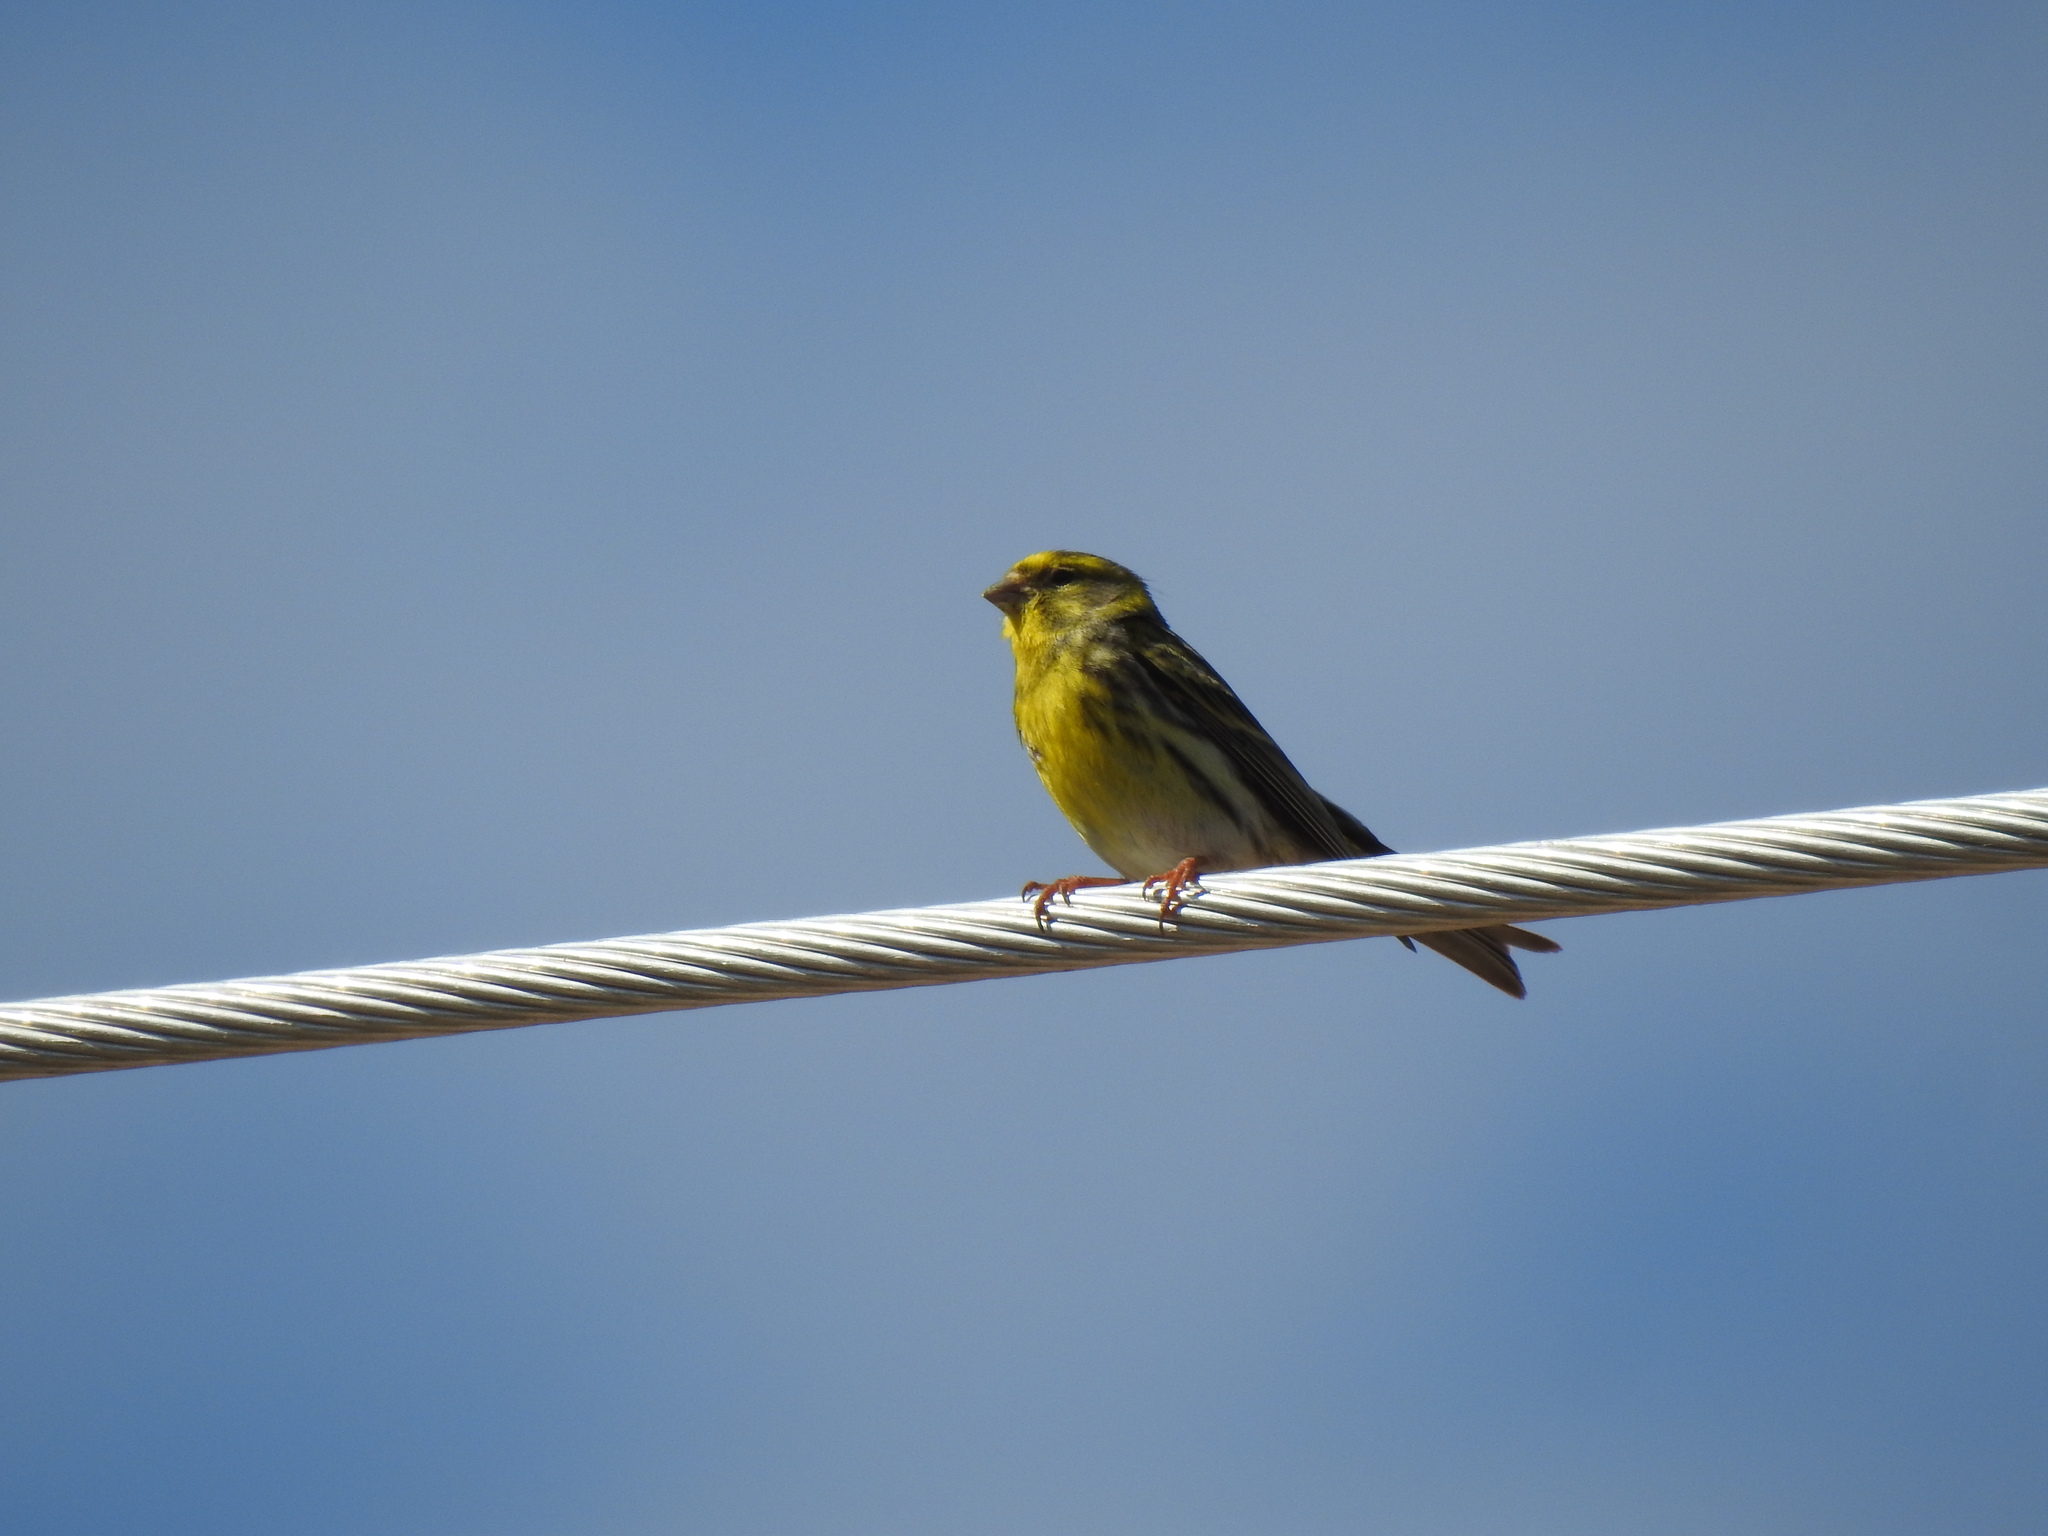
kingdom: Animalia
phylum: Chordata
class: Aves
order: Passeriformes
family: Fringillidae
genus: Serinus
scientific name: Serinus serinus
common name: European serin
